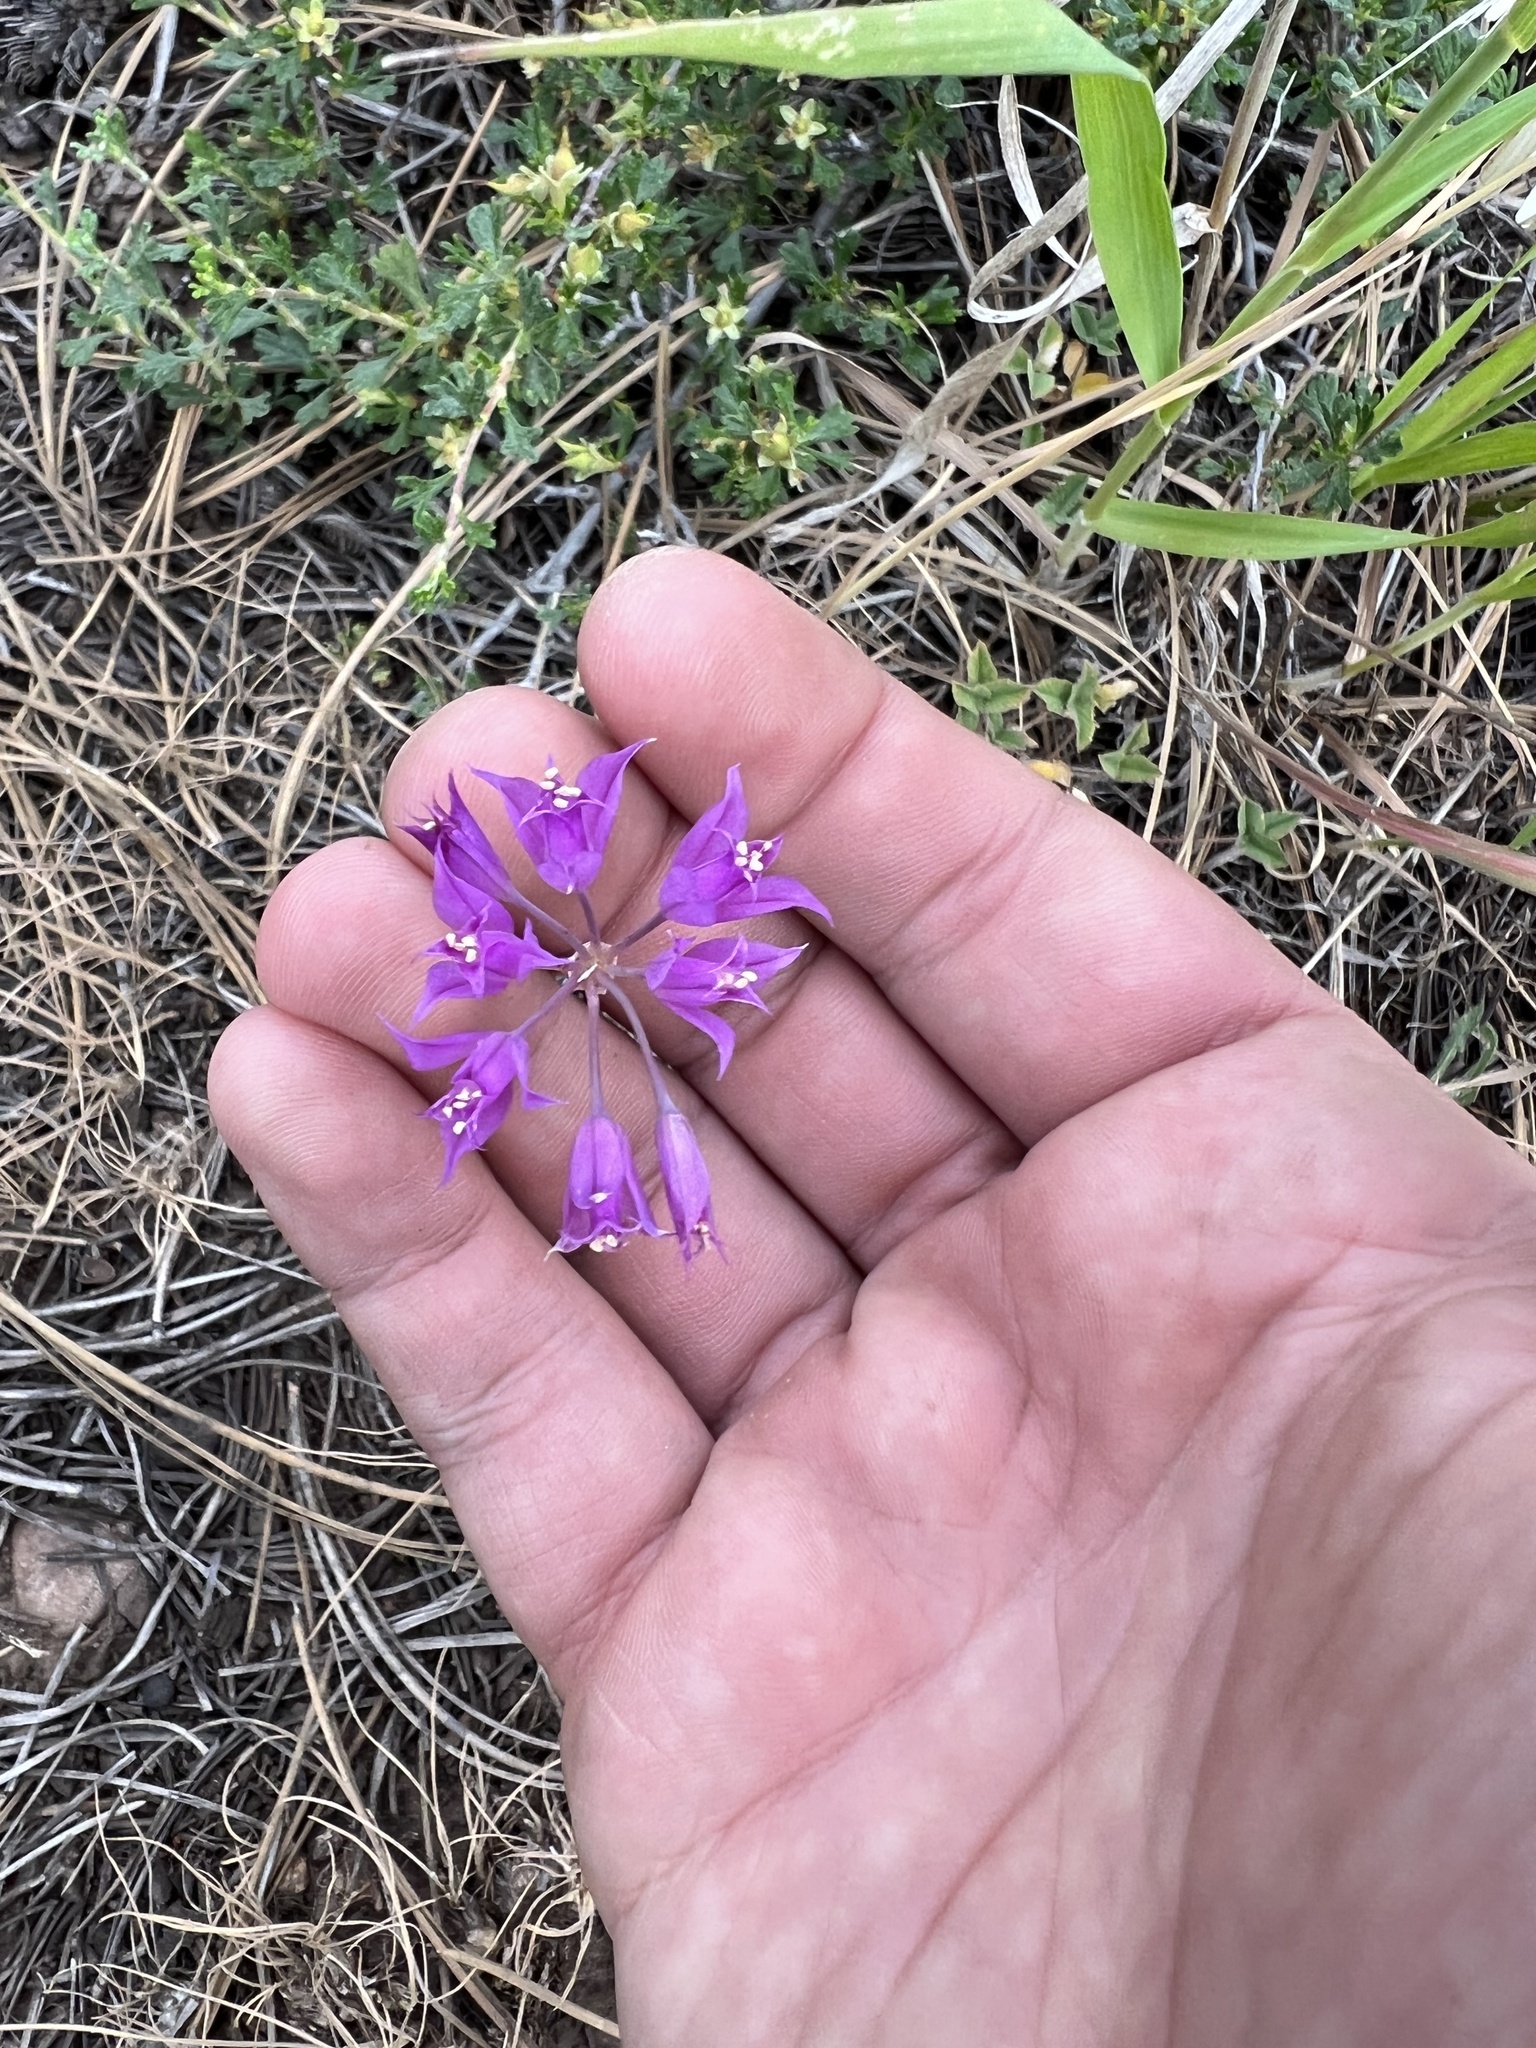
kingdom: Plantae
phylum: Tracheophyta
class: Liliopsida
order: Asparagales
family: Amaryllidaceae
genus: Allium
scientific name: Allium acuminatum
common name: Hooker's onion
